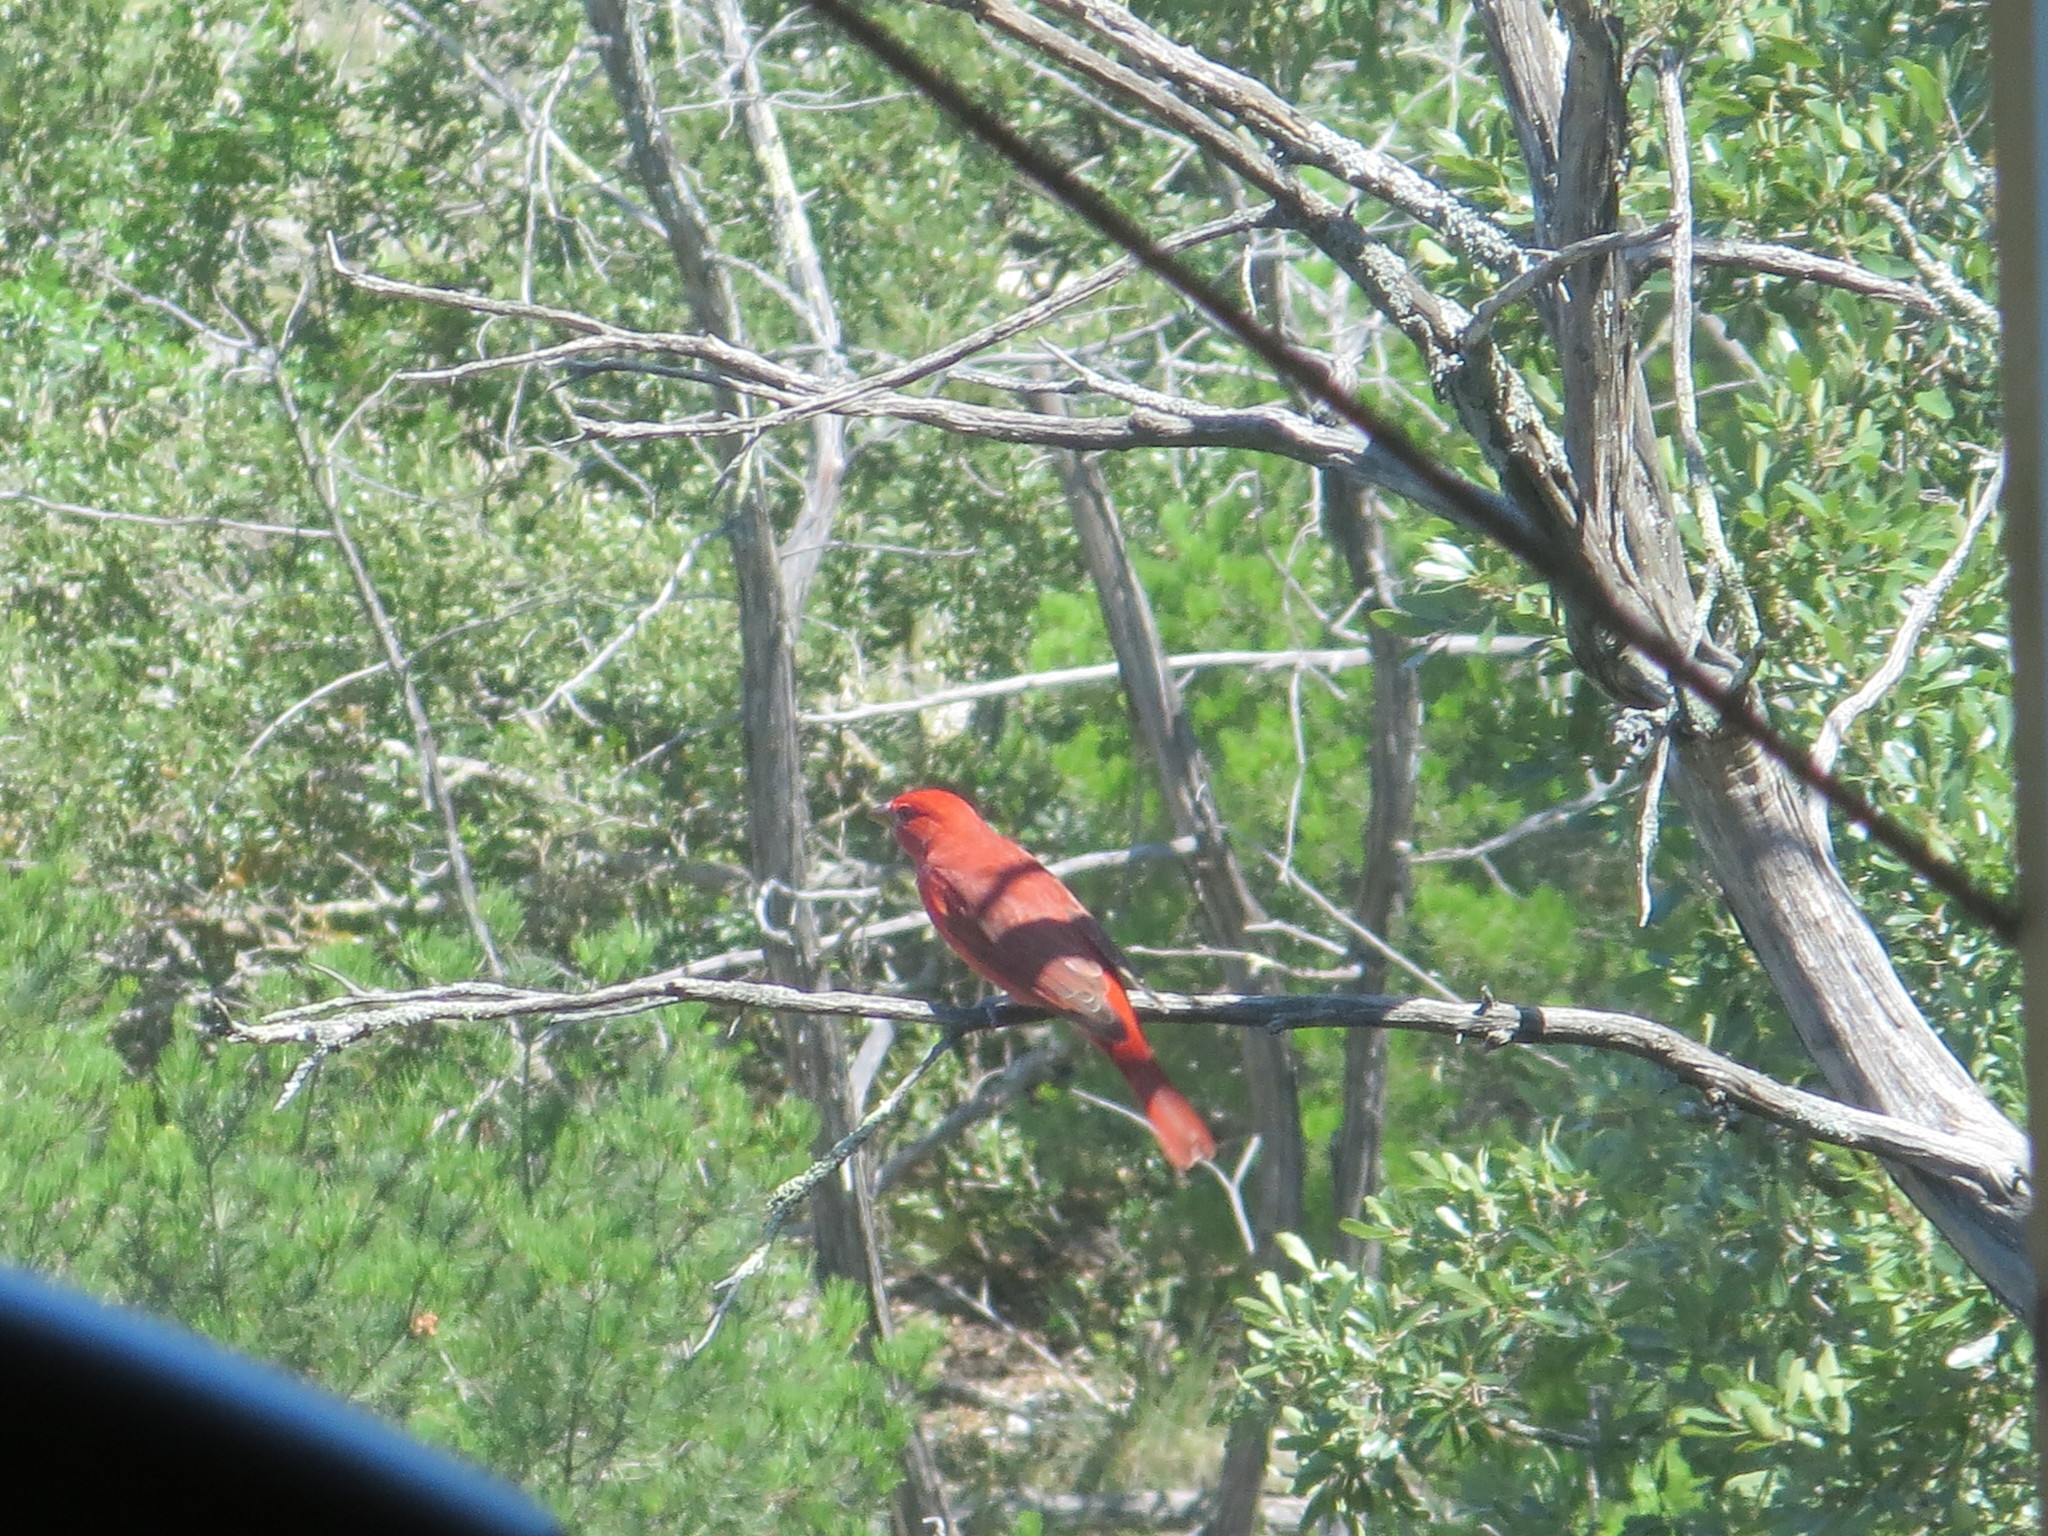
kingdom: Animalia
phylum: Chordata
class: Aves
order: Passeriformes
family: Cardinalidae
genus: Piranga
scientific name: Piranga rubra
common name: Summer tanager
